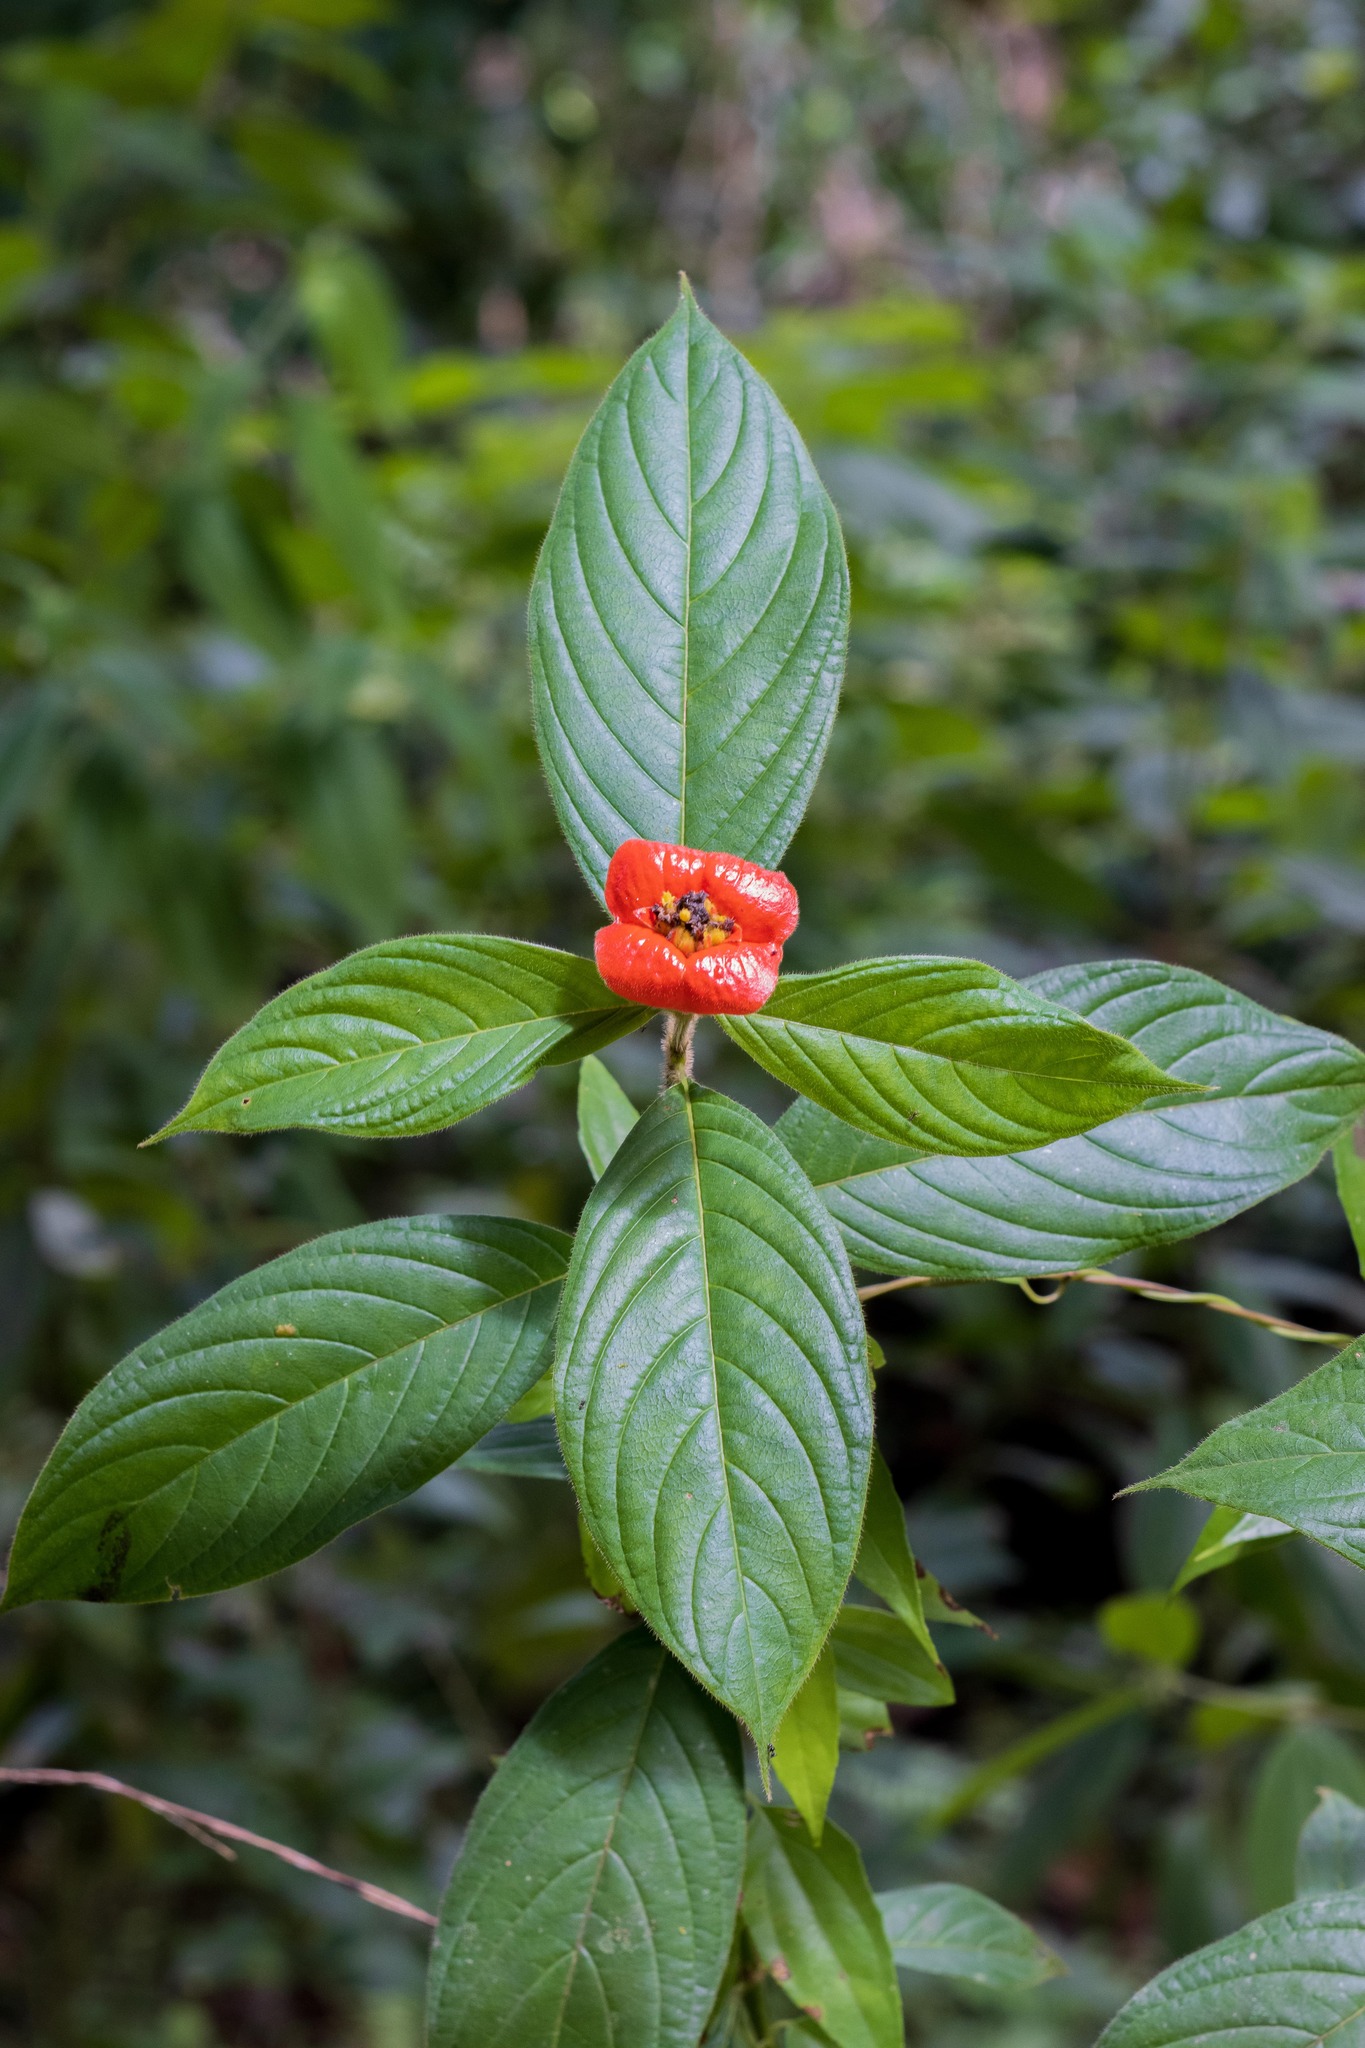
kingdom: Plantae
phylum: Tracheophyta
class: Magnoliopsida
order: Gentianales
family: Rubiaceae
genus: Palicourea
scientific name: Palicourea tomentosa
